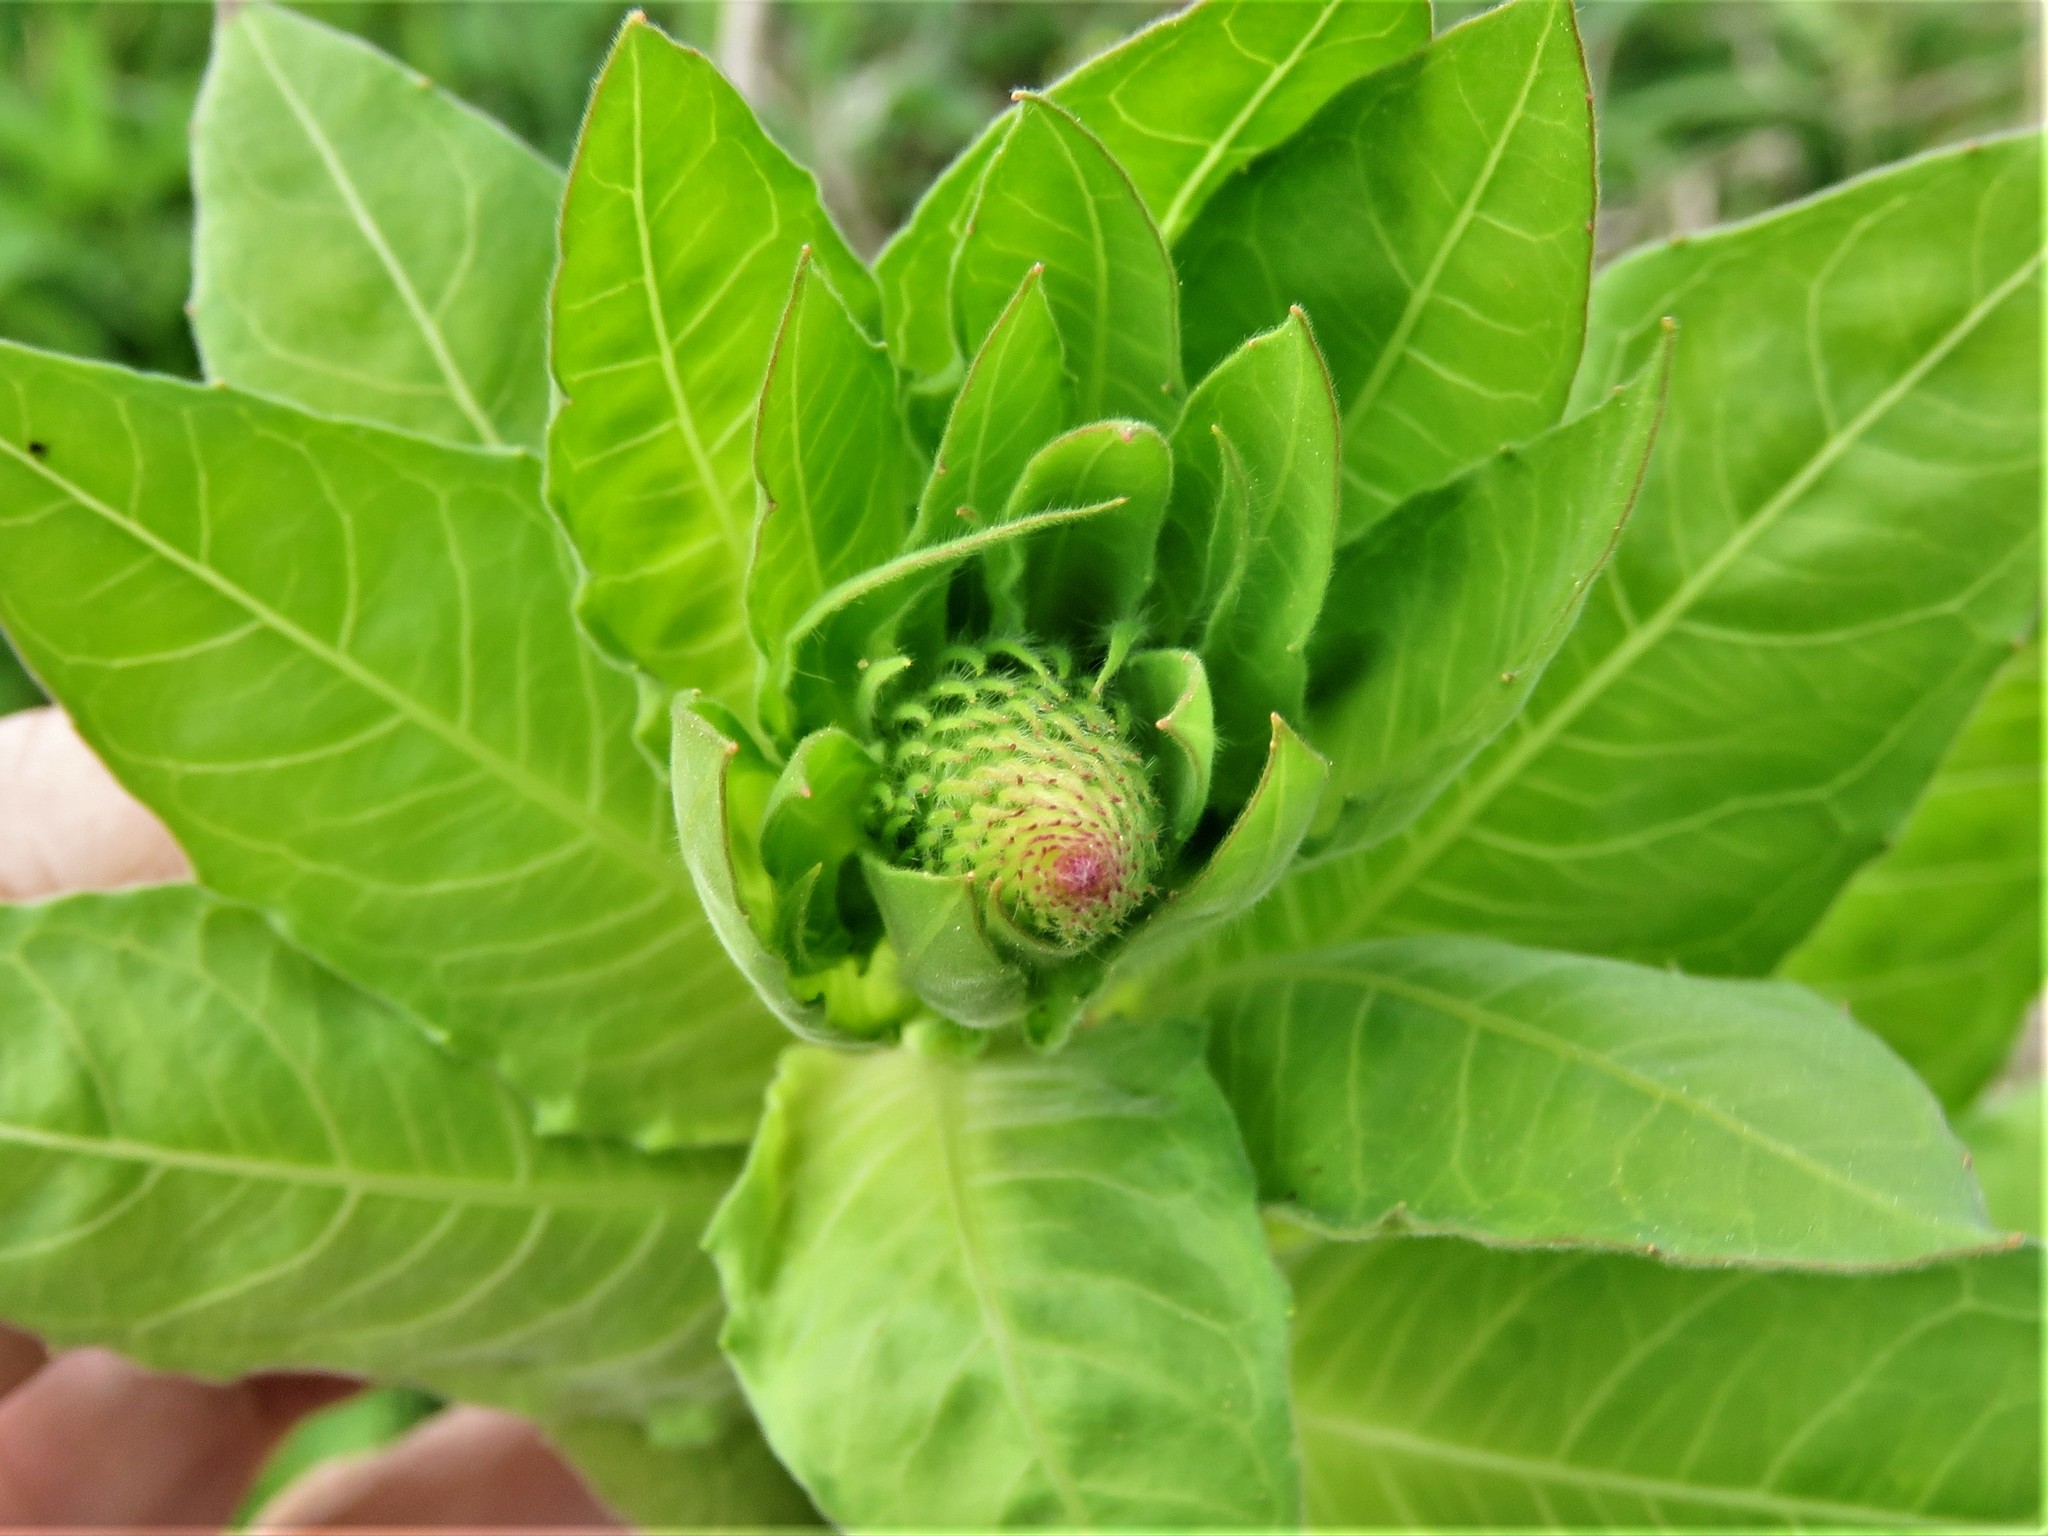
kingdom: Plantae
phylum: Tracheophyta
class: Magnoliopsida
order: Myrtales
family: Onagraceae
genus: Oenothera
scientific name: Oenothera curtiflora
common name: Velvetweed
